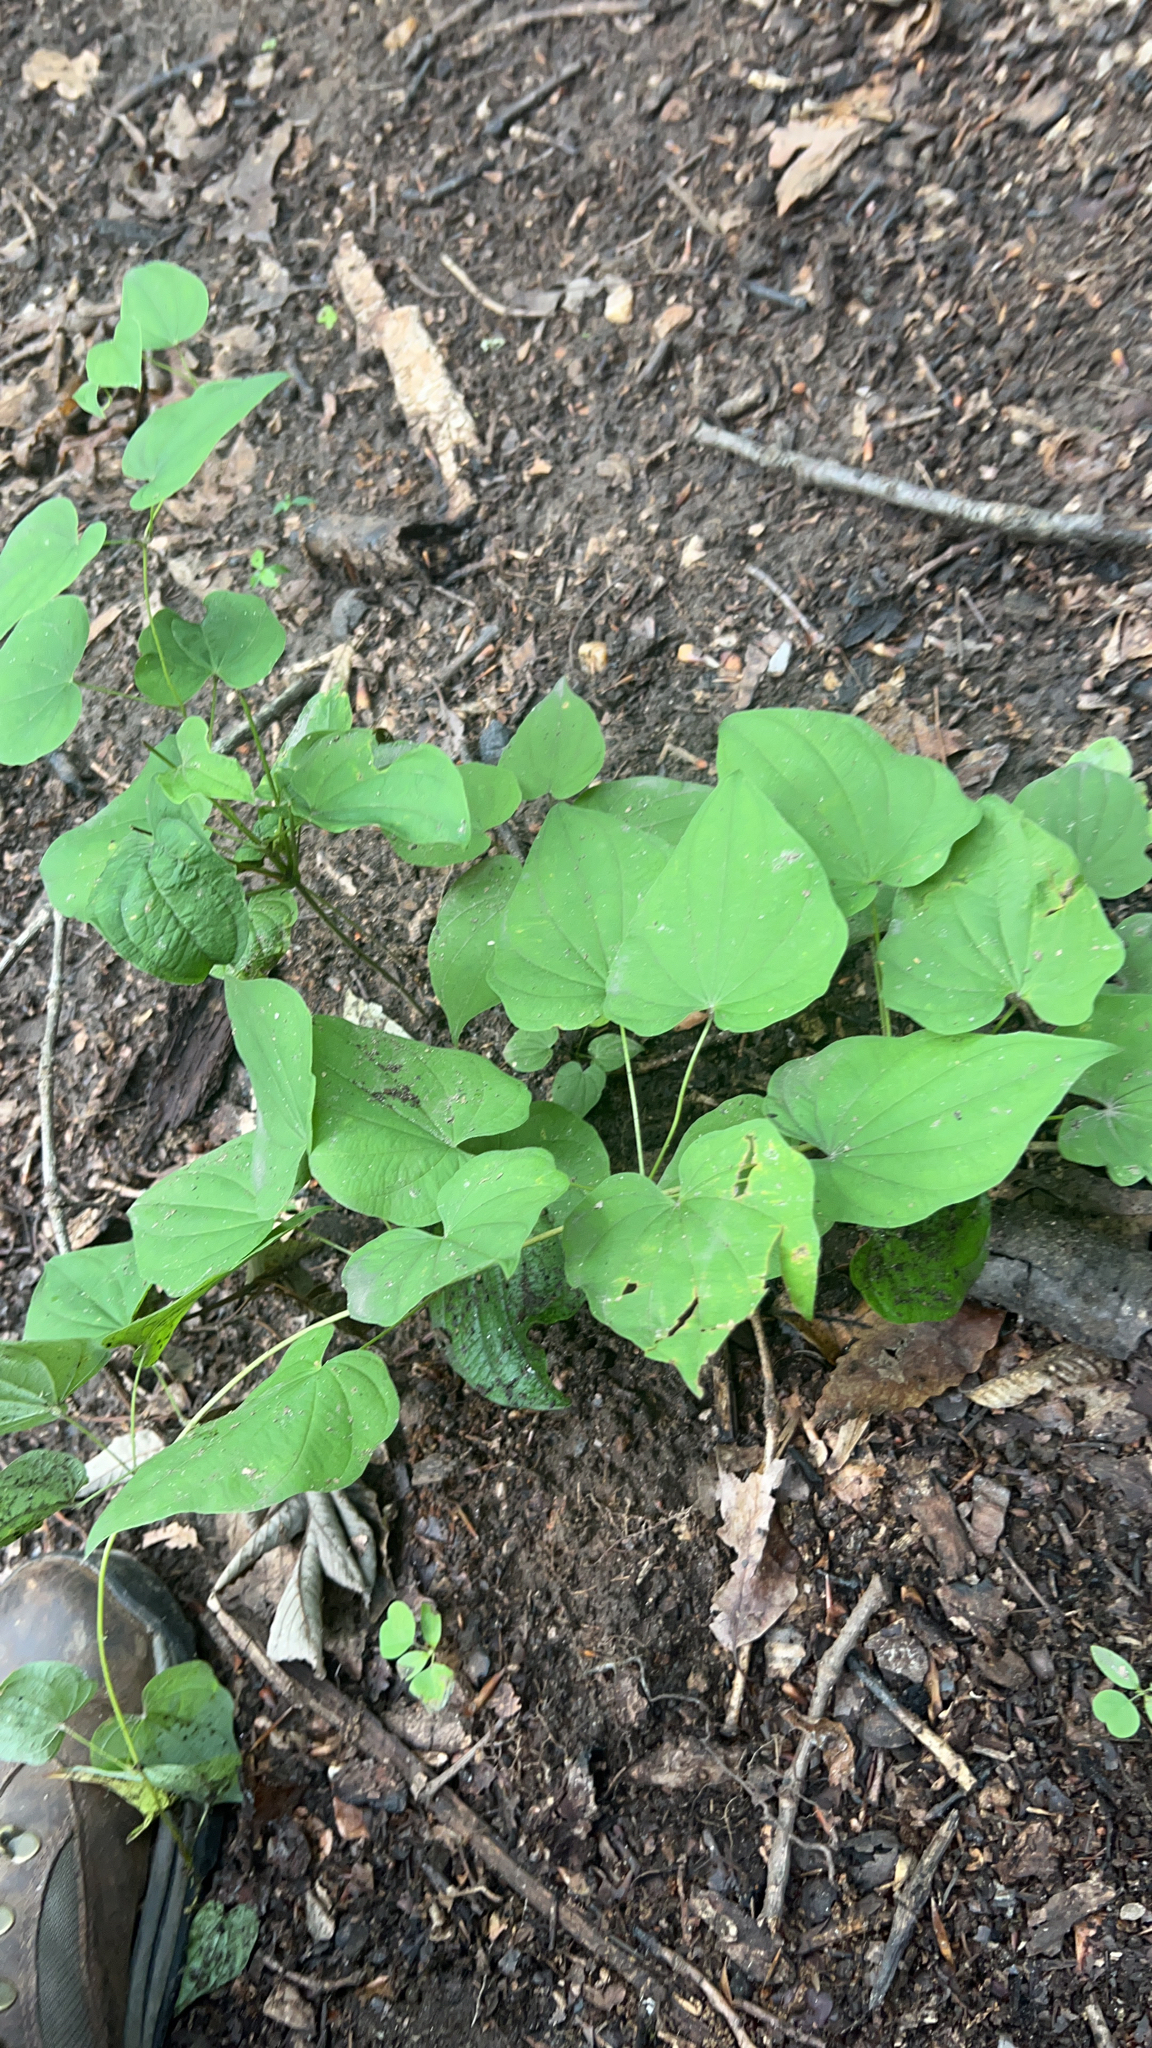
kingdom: Plantae
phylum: Tracheophyta
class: Liliopsida
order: Dioscoreales
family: Dioscoreaceae
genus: Dioscorea
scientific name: Dioscorea villosa
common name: Wild yam
